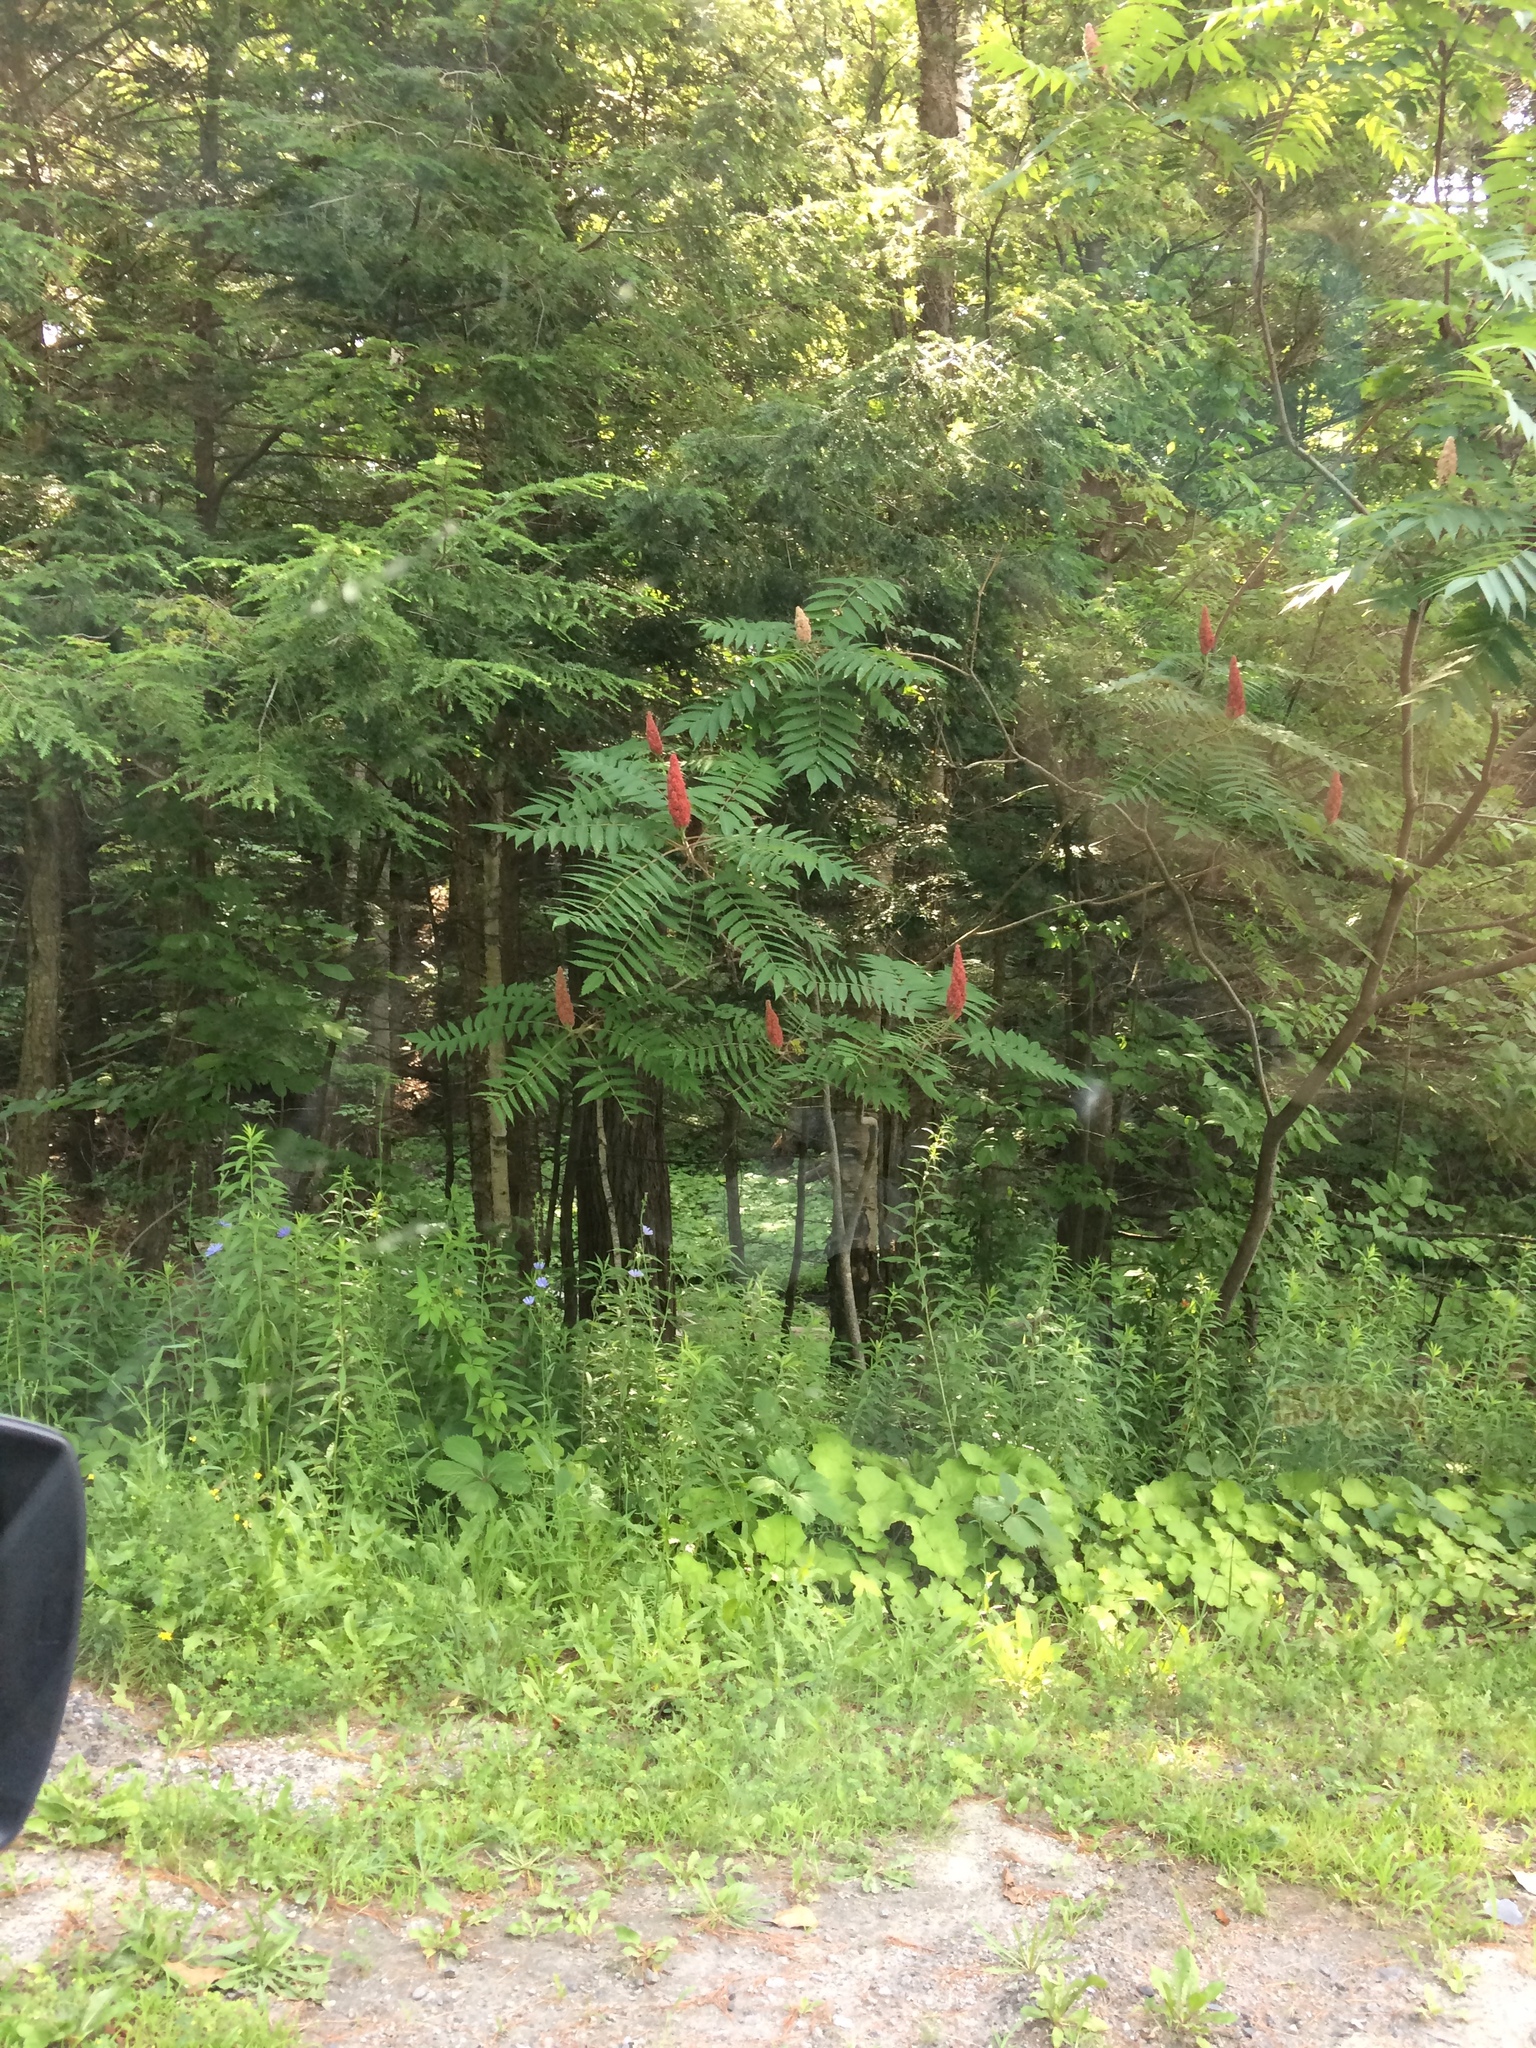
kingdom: Plantae
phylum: Tracheophyta
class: Magnoliopsida
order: Sapindales
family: Anacardiaceae
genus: Rhus
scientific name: Rhus typhina
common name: Staghorn sumac
